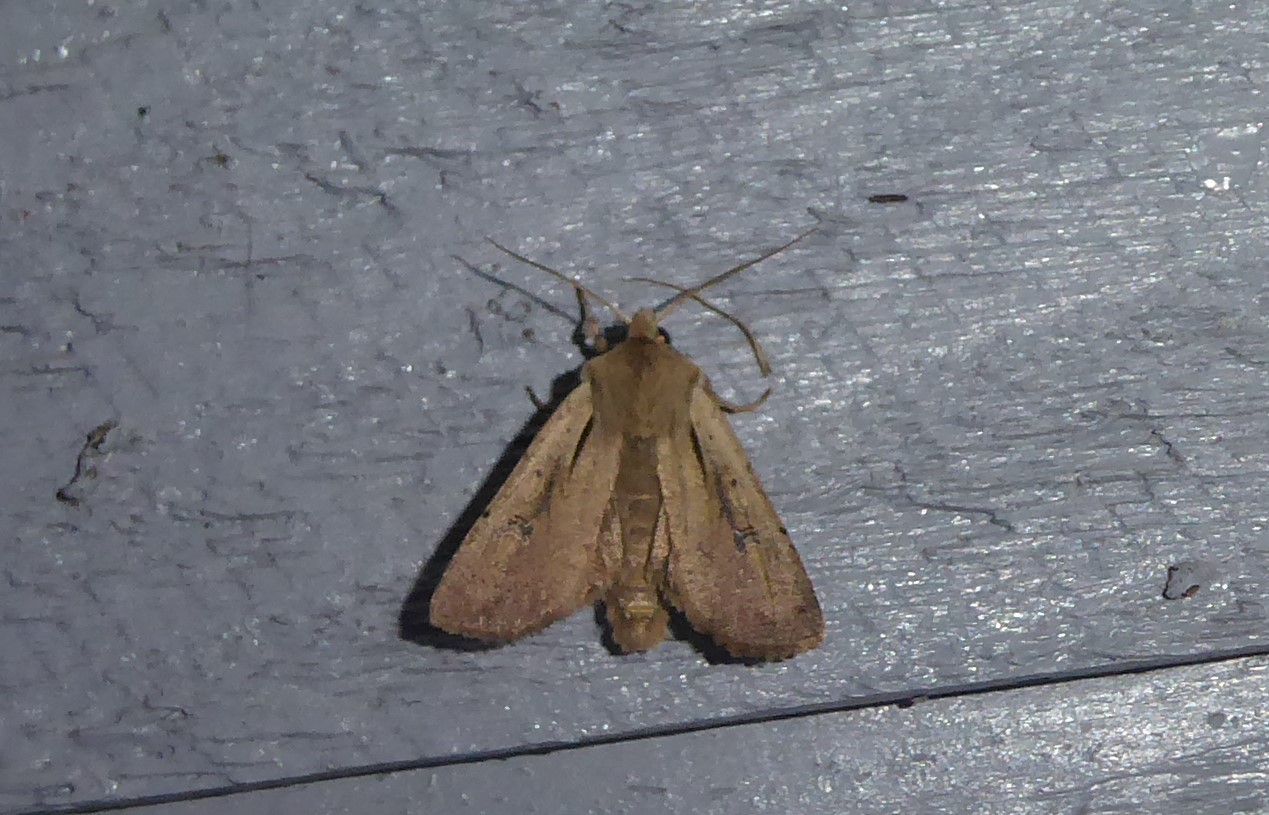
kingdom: Animalia
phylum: Arthropoda
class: Insecta
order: Lepidoptera
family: Noctuidae
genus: Ichneutica
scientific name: Ichneutica atristriga
